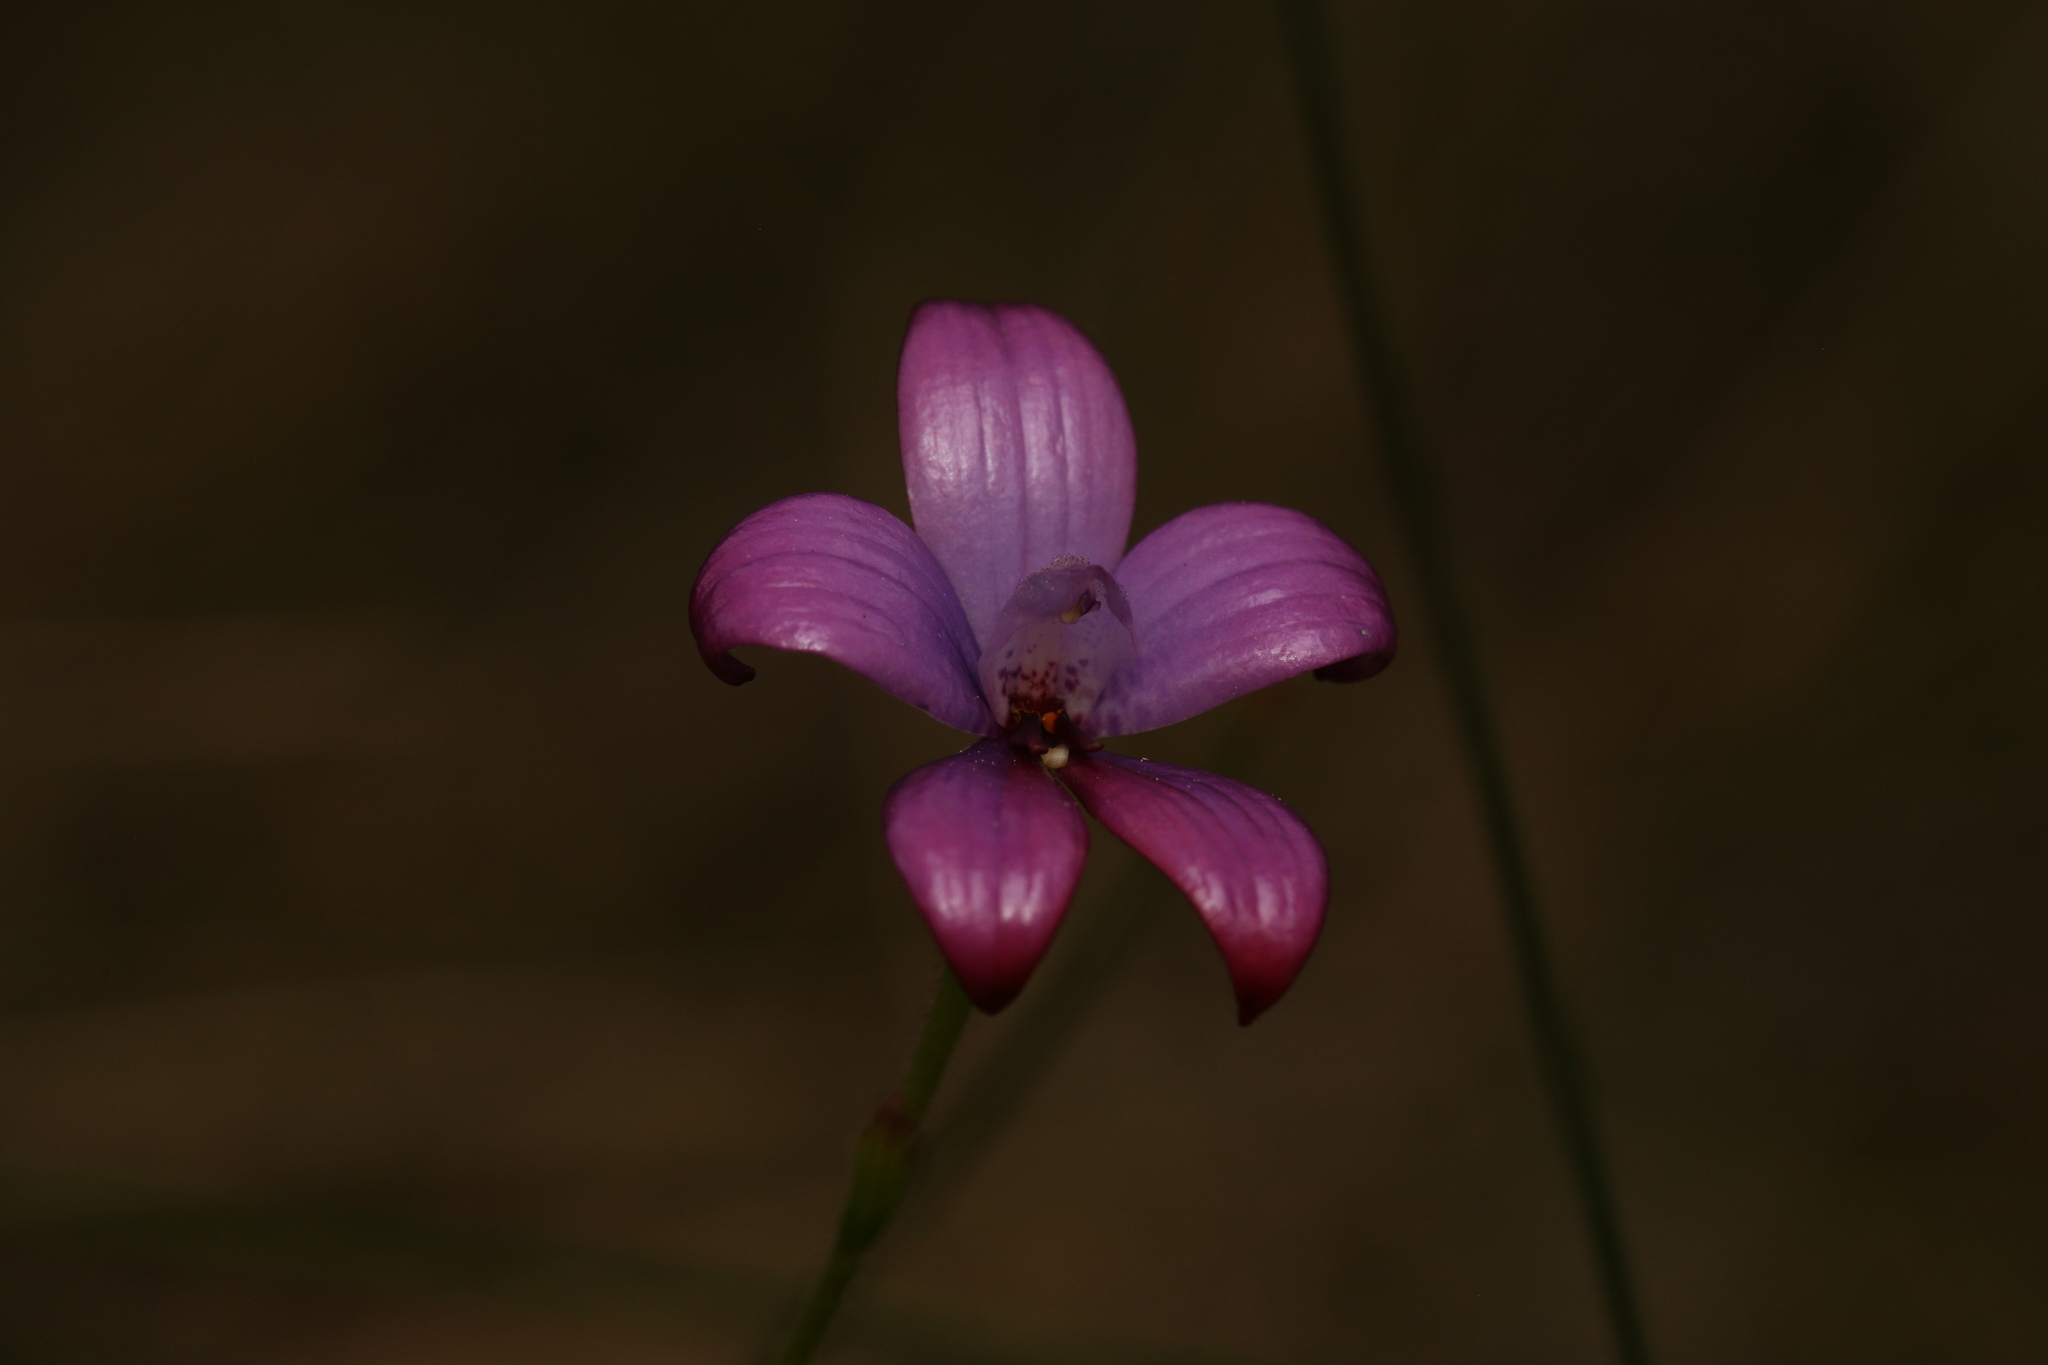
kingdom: Plantae
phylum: Tracheophyta
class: Liliopsida
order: Asparagales
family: Orchidaceae
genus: Caladenia
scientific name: Caladenia brunonis
